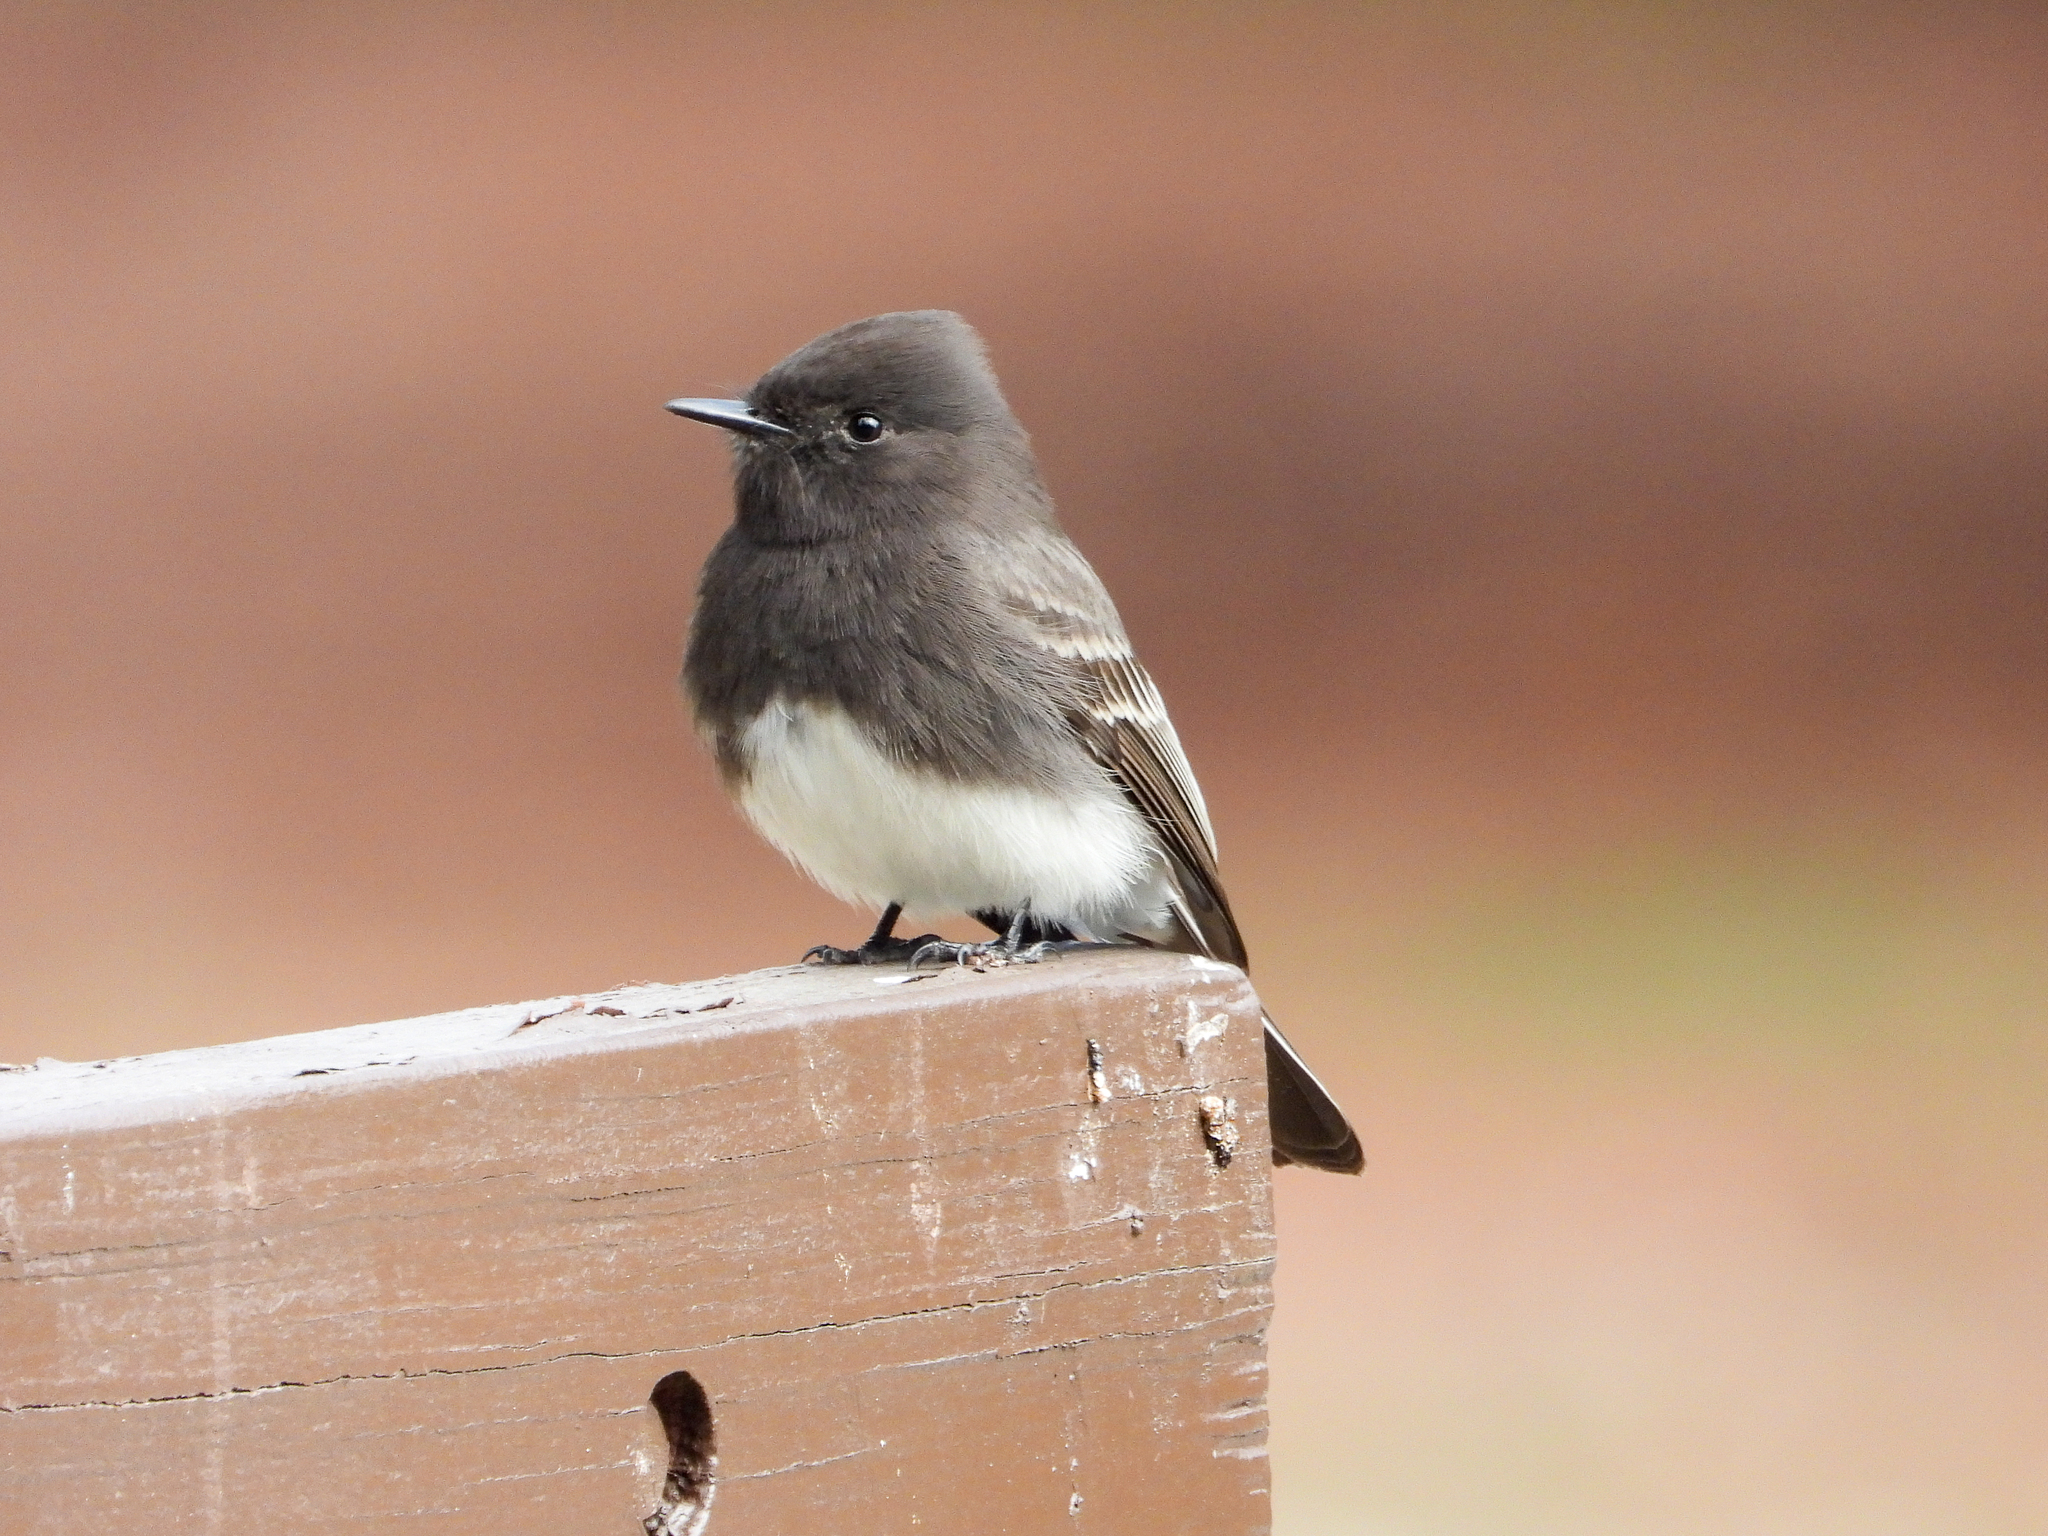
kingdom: Animalia
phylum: Chordata
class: Aves
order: Passeriformes
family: Tyrannidae
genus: Sayornis
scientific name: Sayornis nigricans
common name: Black phoebe
